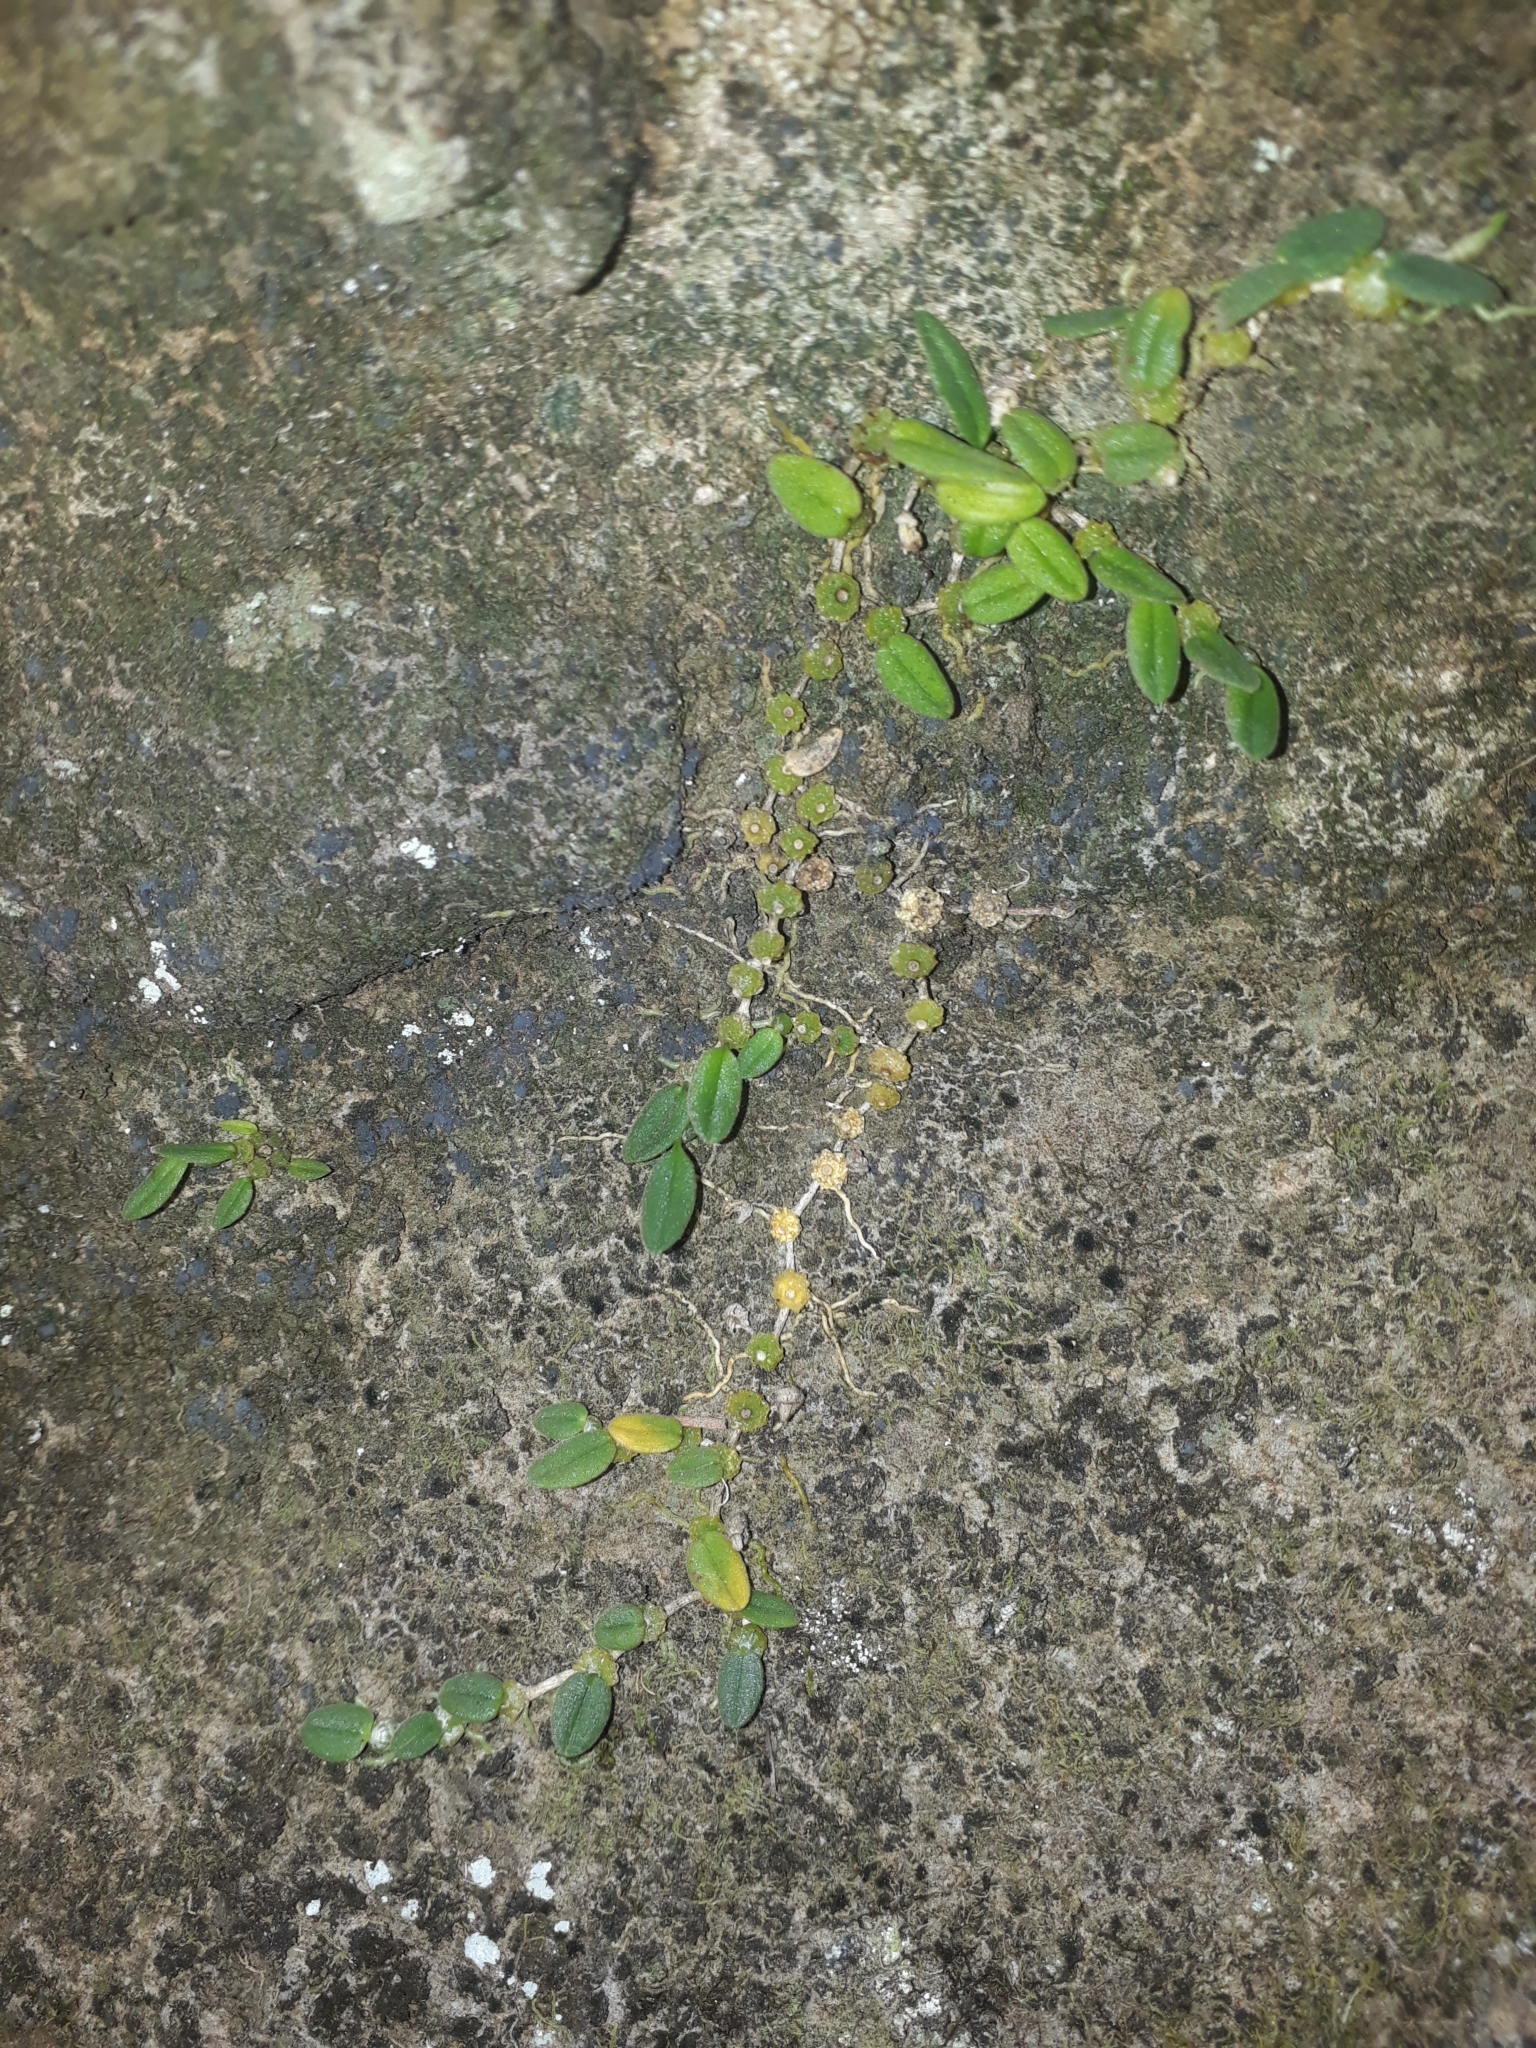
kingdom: Plantae
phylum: Tracheophyta
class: Liliopsida
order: Asparagales
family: Orchidaceae
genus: Bulbophyllum
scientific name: Bulbophyllum pygmaeum
